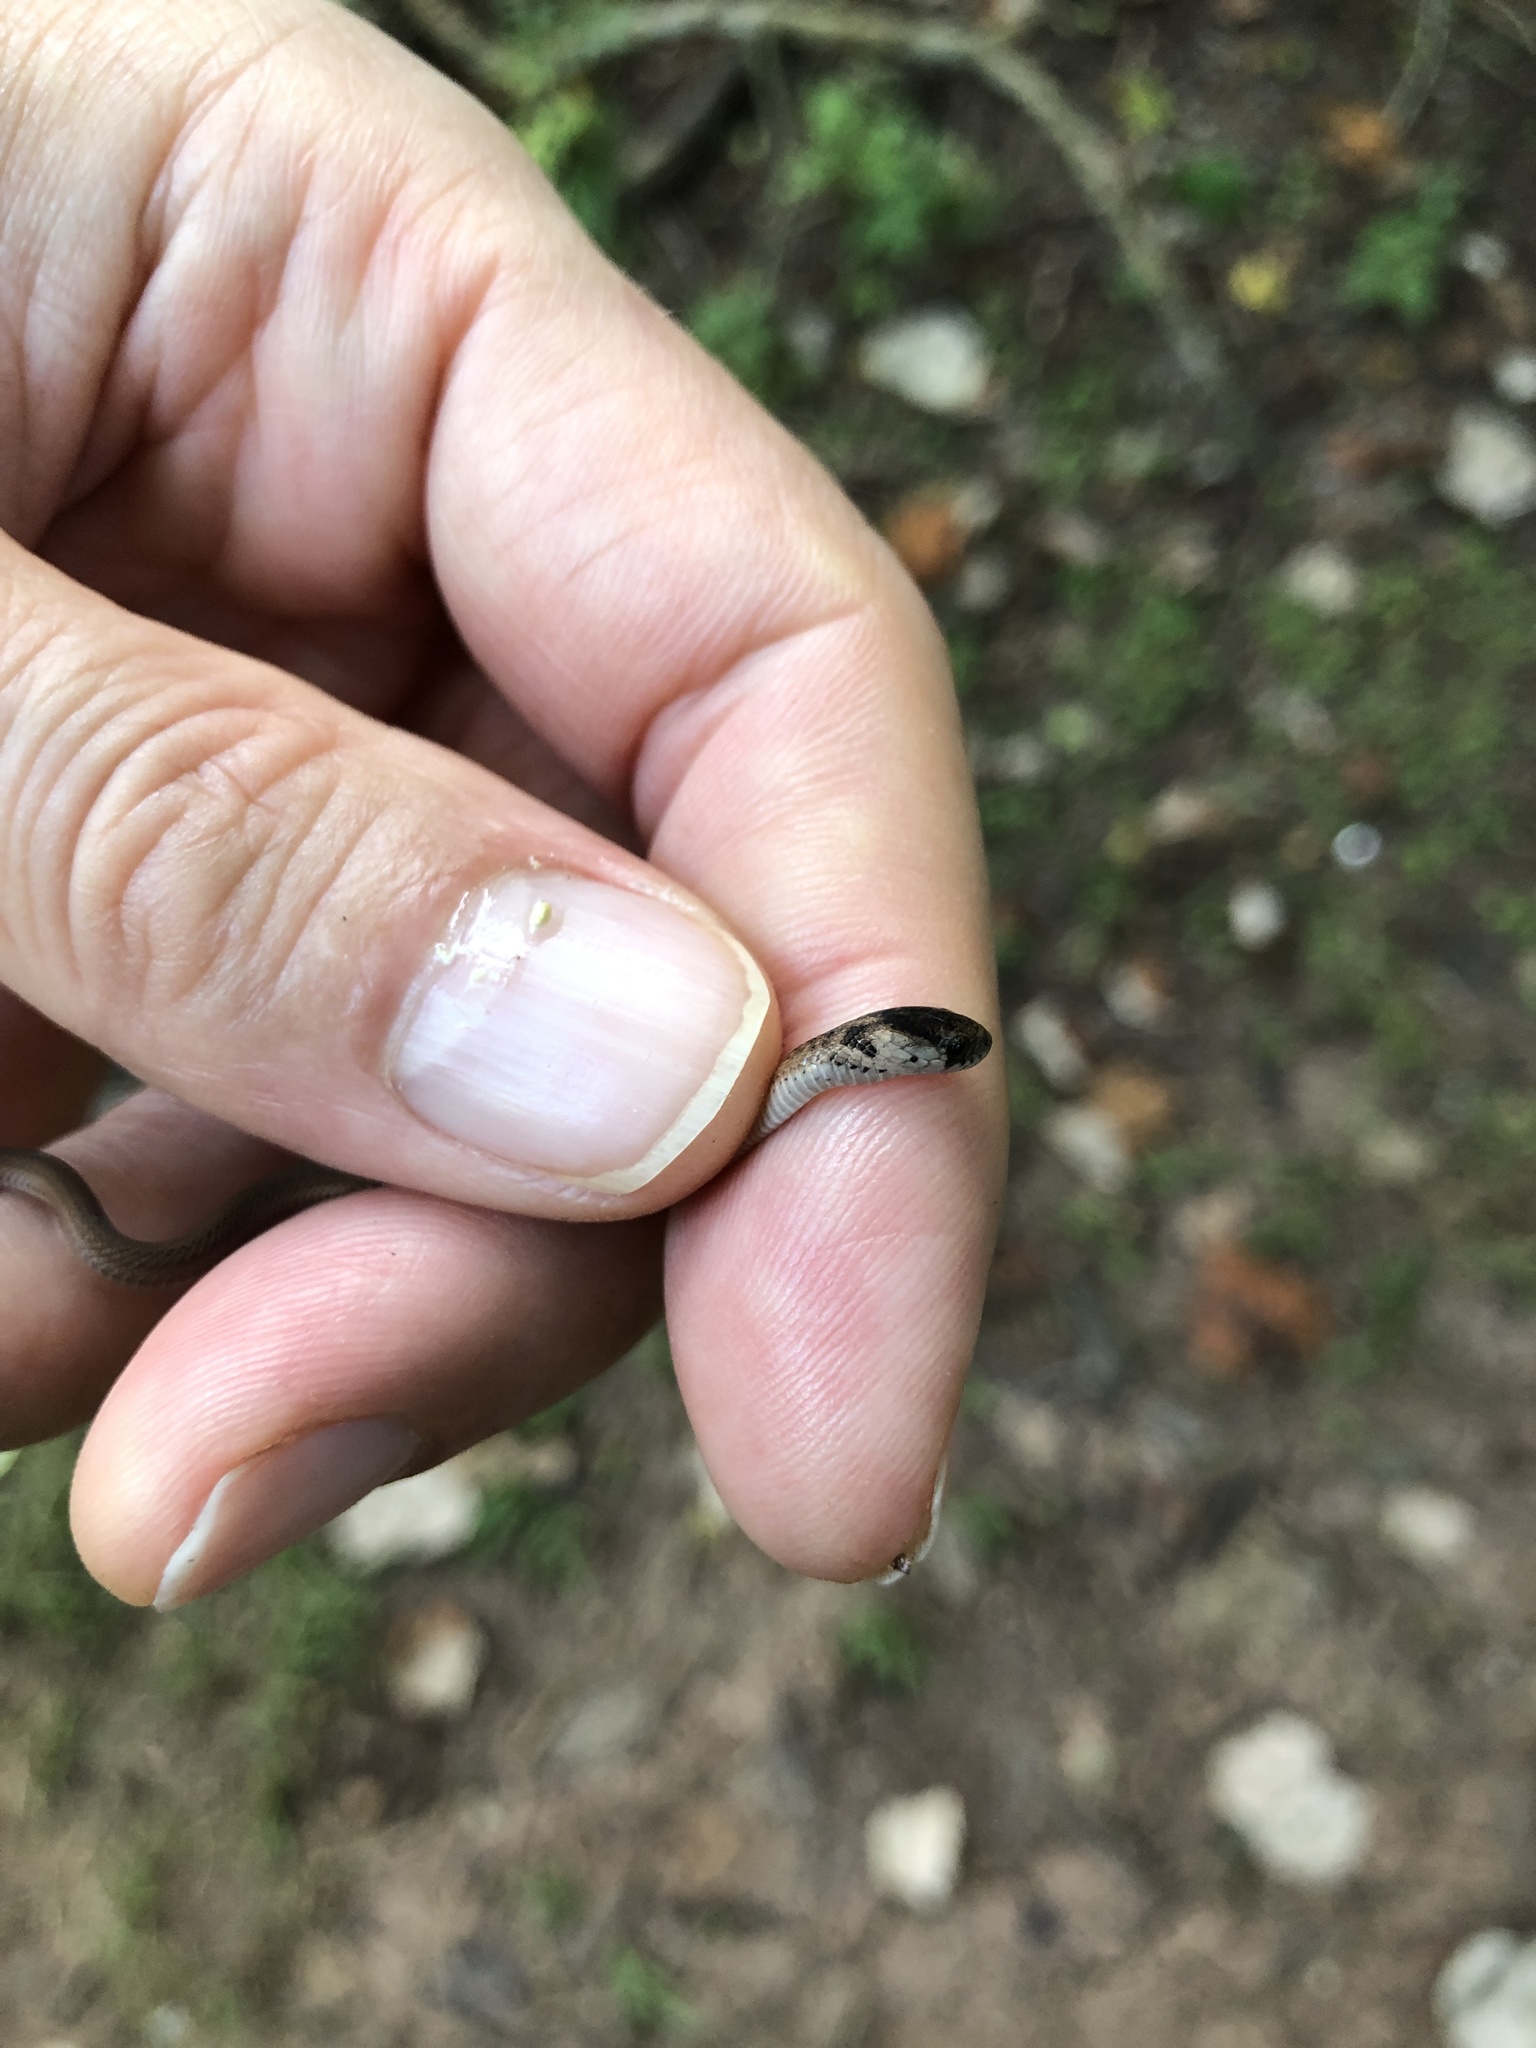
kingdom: Animalia
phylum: Chordata
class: Squamata
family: Colubridae
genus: Storeria
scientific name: Storeria dekayi
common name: (dekay’s) brown snake
